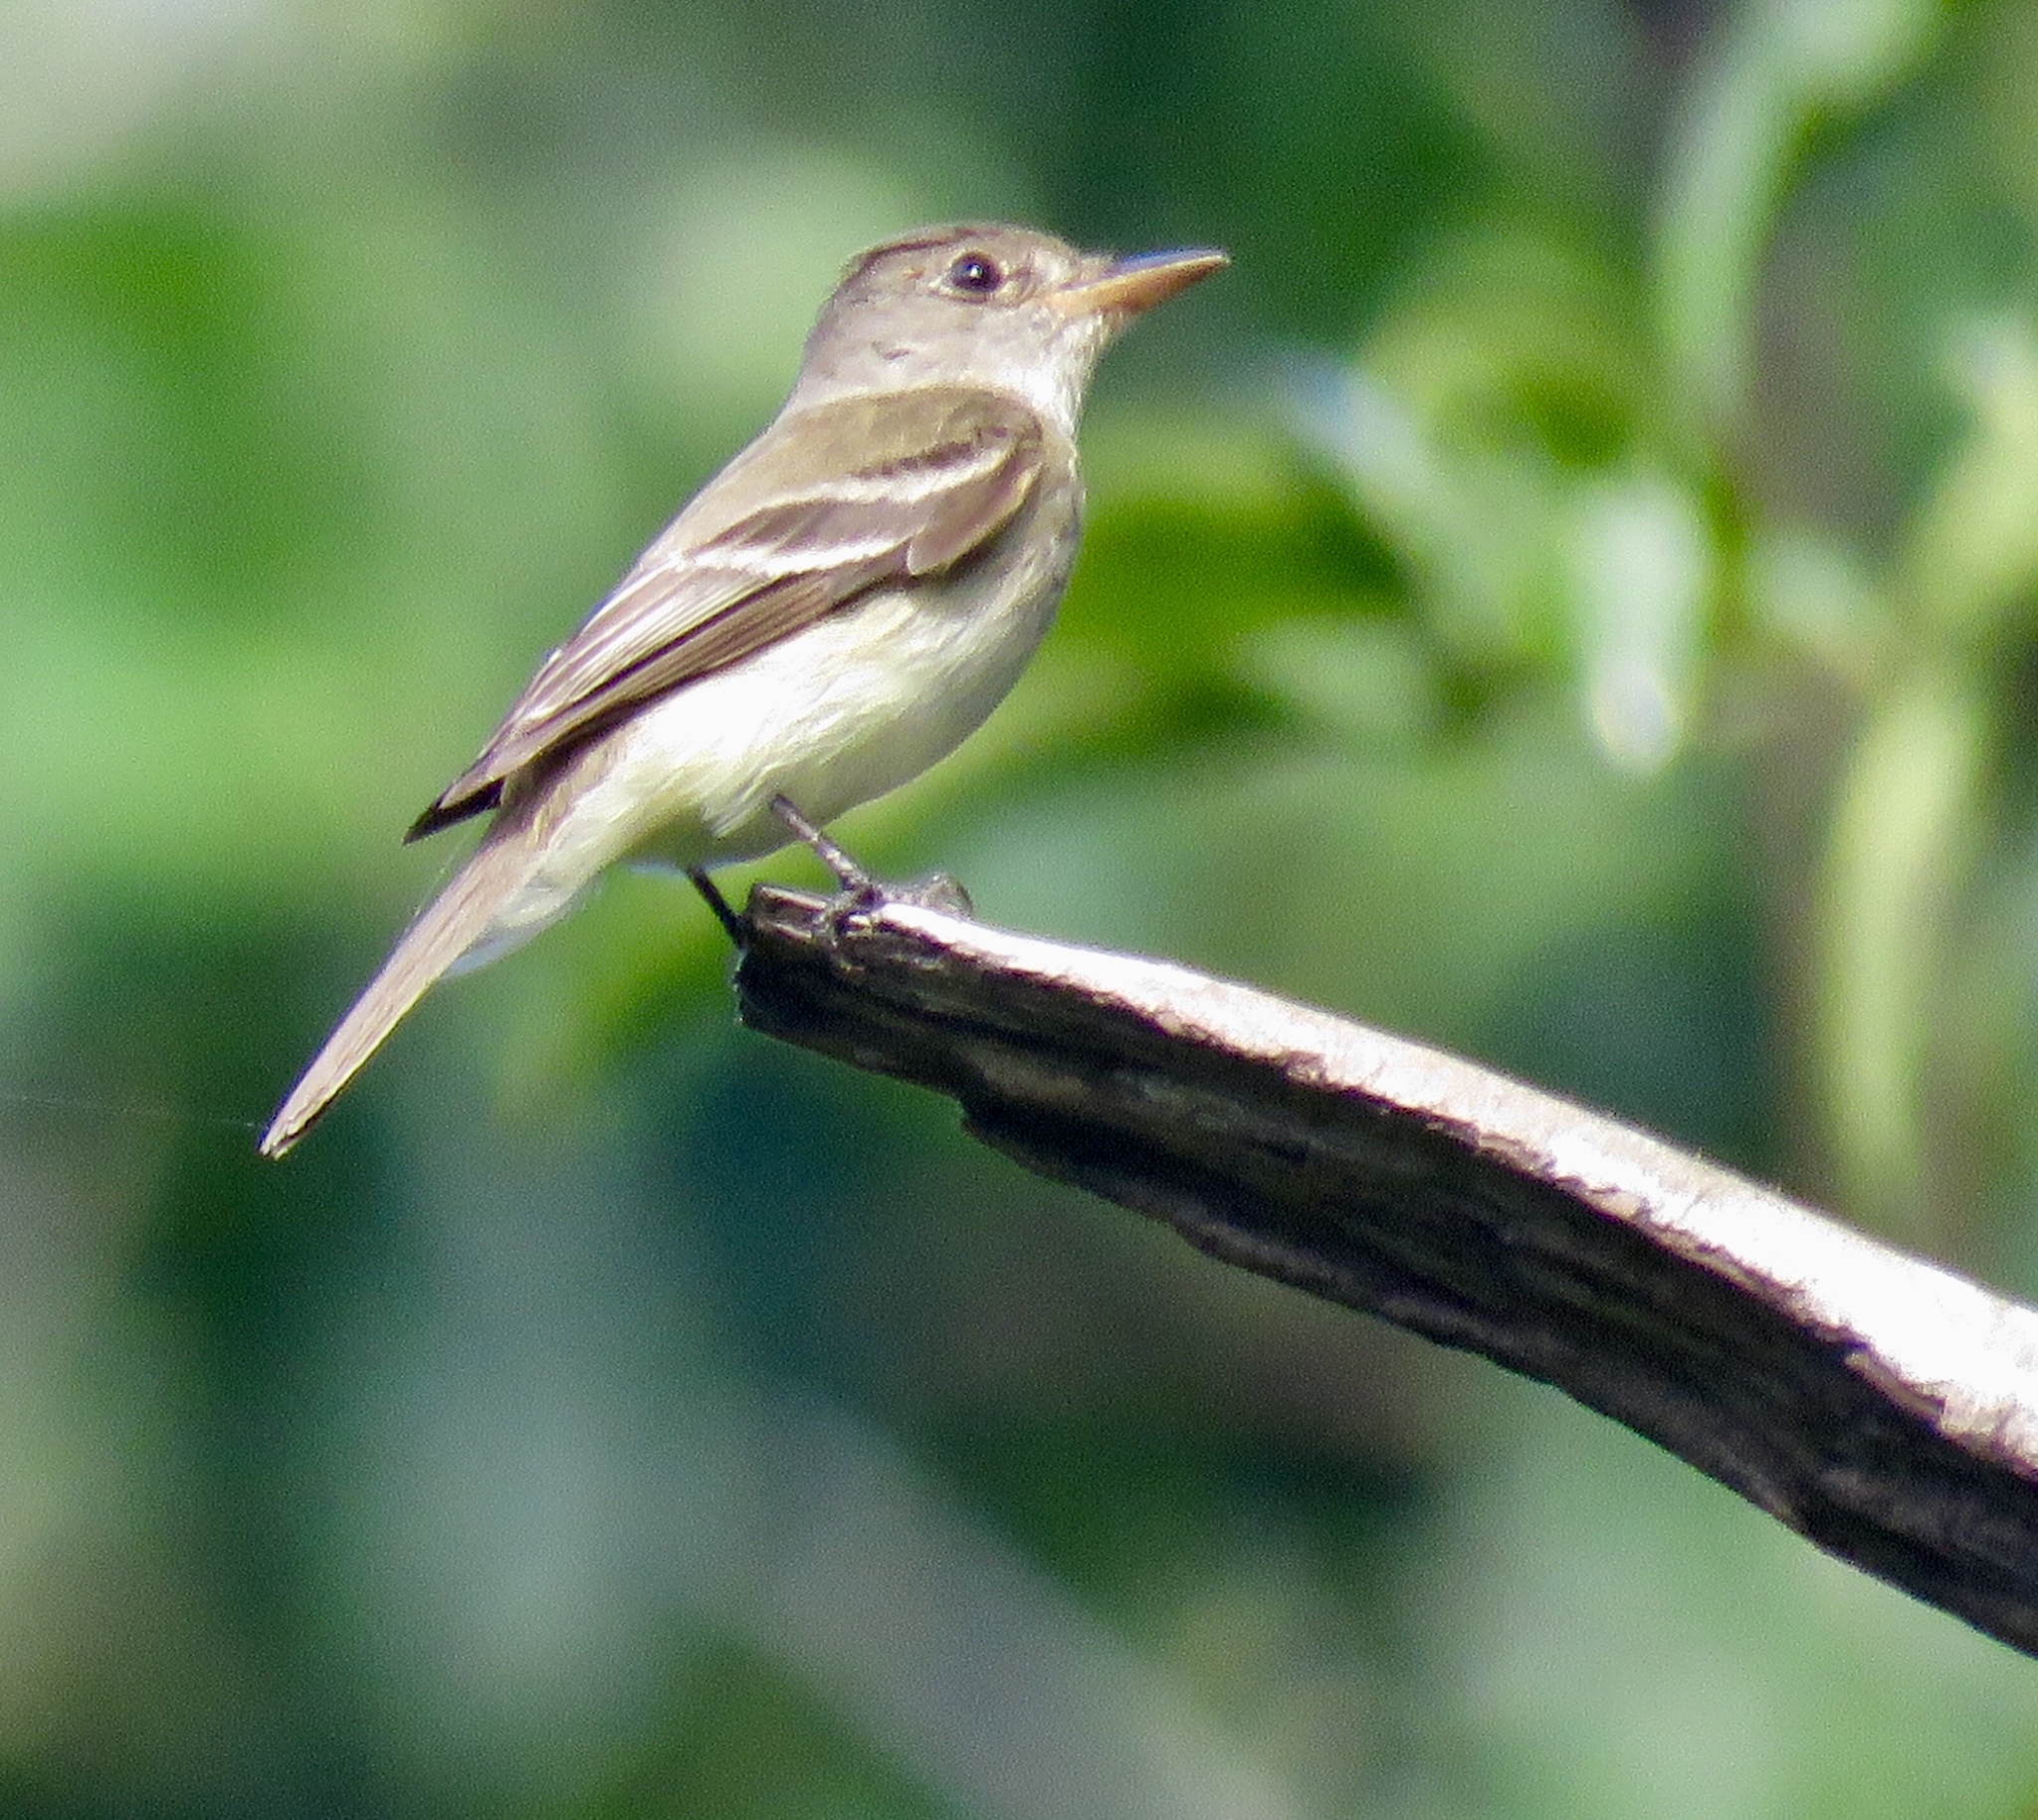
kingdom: Animalia
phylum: Chordata
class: Aves
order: Passeriformes
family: Tyrannidae
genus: Contopus
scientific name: Contopus cinereus
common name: Tropical pewee
